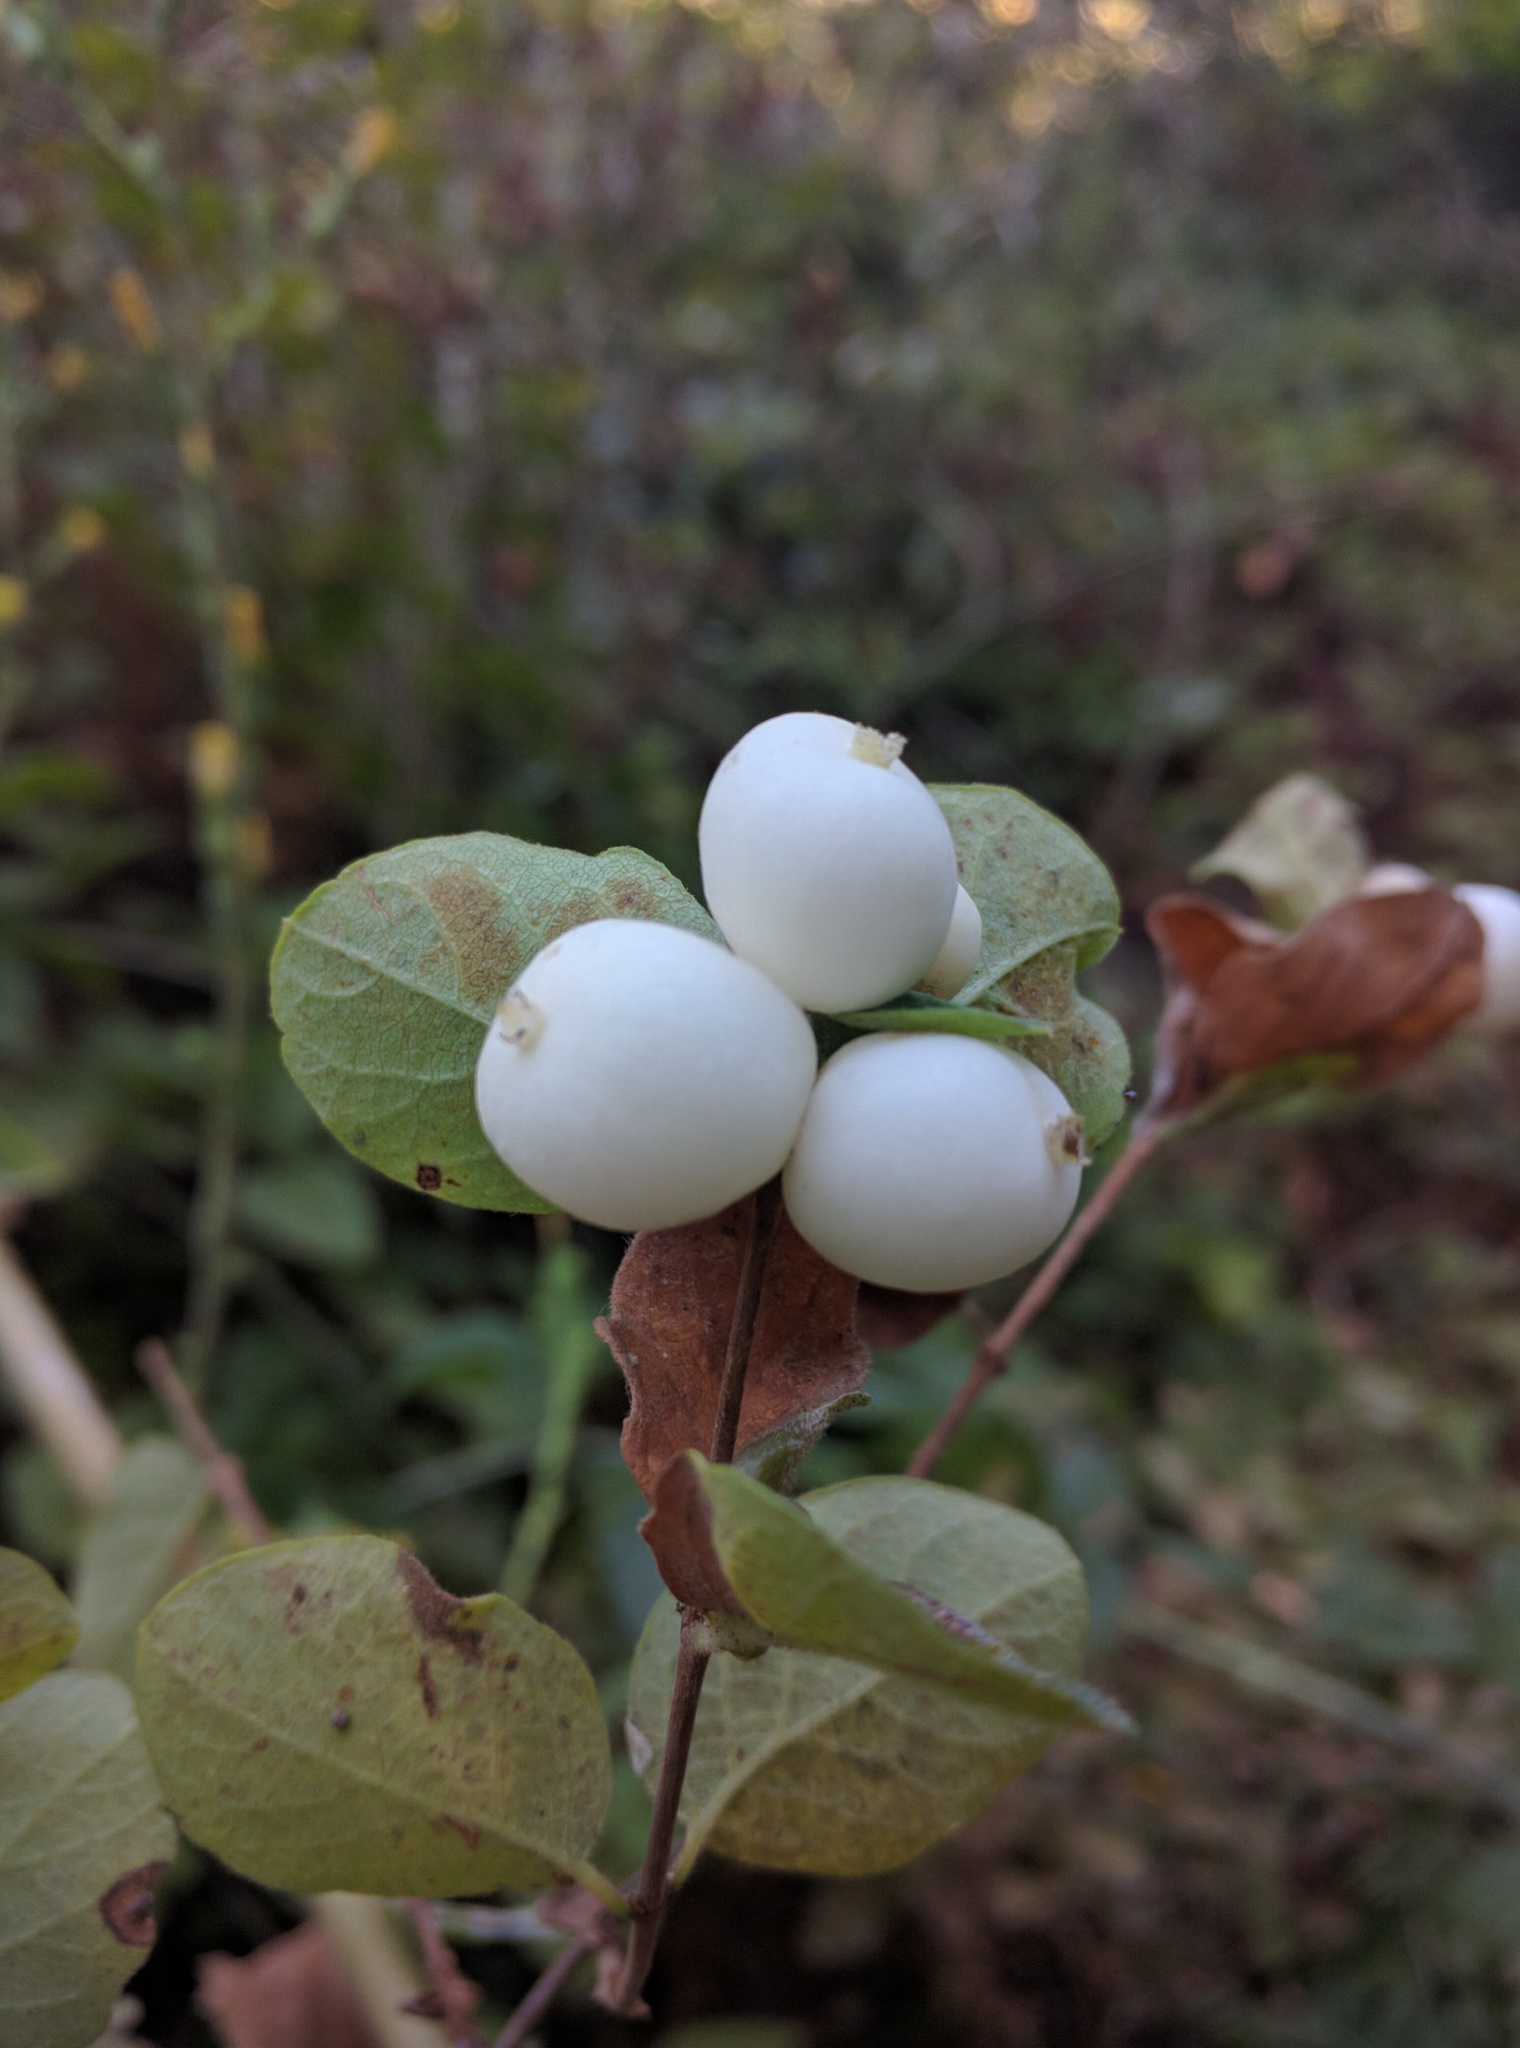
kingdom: Plantae
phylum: Tracheophyta
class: Magnoliopsida
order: Dipsacales
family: Caprifoliaceae
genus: Symphoricarpos
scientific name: Symphoricarpos albus
